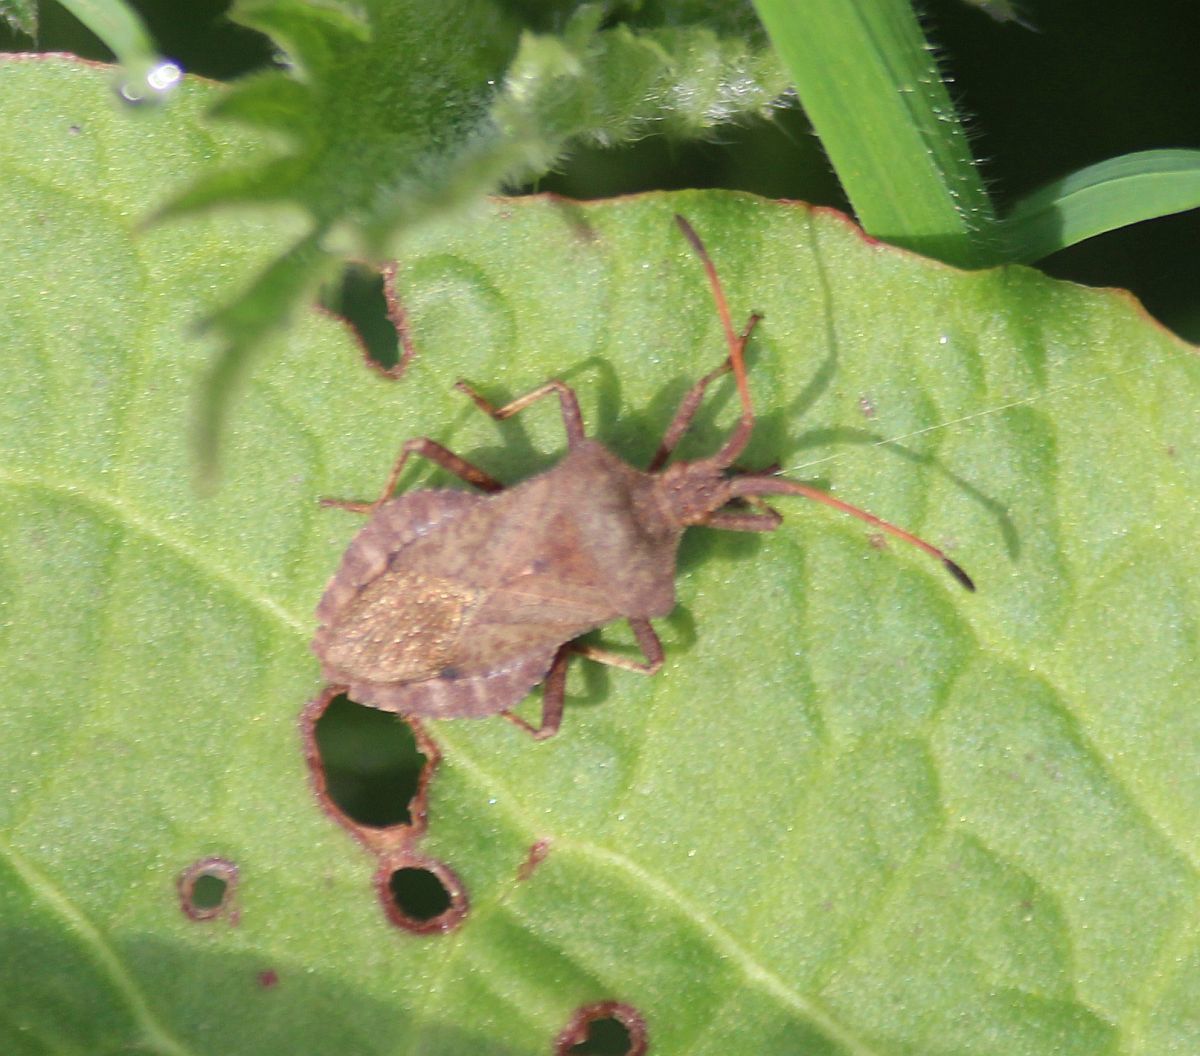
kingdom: Animalia
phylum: Arthropoda
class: Insecta
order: Hemiptera
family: Coreidae
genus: Coreus
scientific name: Coreus marginatus
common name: Dock bug
